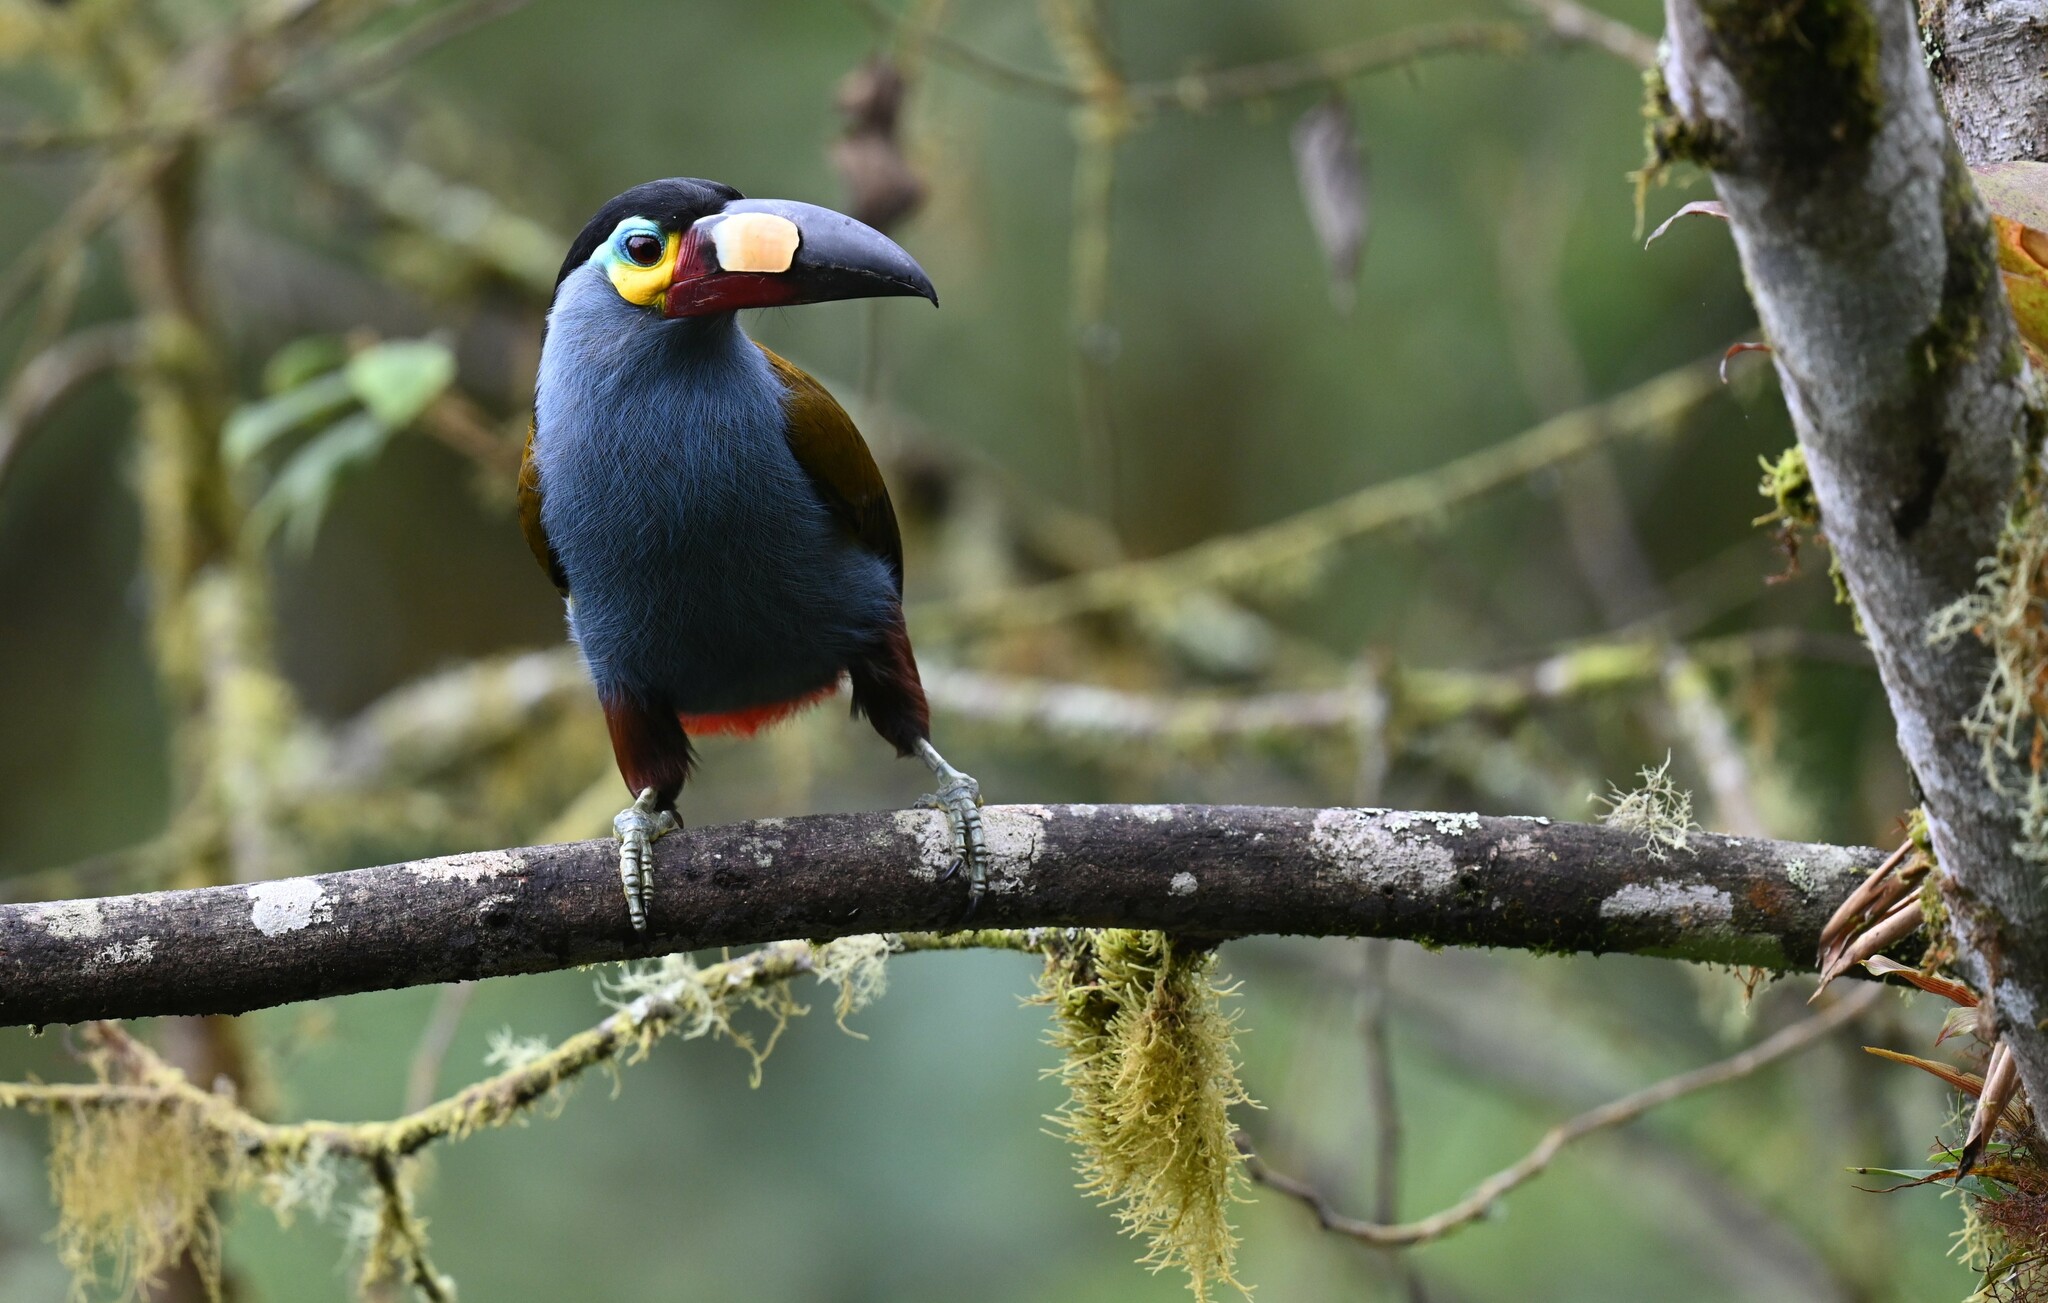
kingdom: Animalia
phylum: Chordata
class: Aves
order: Piciformes
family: Ramphastidae
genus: Andigena
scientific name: Andigena laminirostris
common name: Plate-billed mountain toucan
